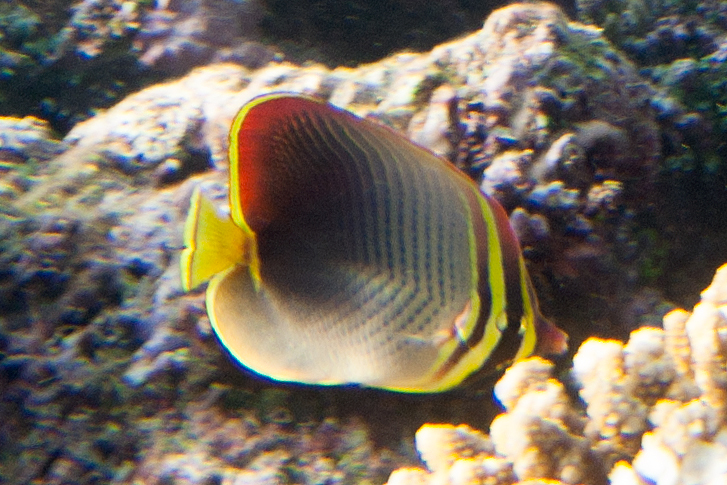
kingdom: Animalia
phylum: Chordata
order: Perciformes
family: Chaetodontidae
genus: Chaetodon
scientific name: Chaetodon baronessa
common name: Triangular butterflyfish
